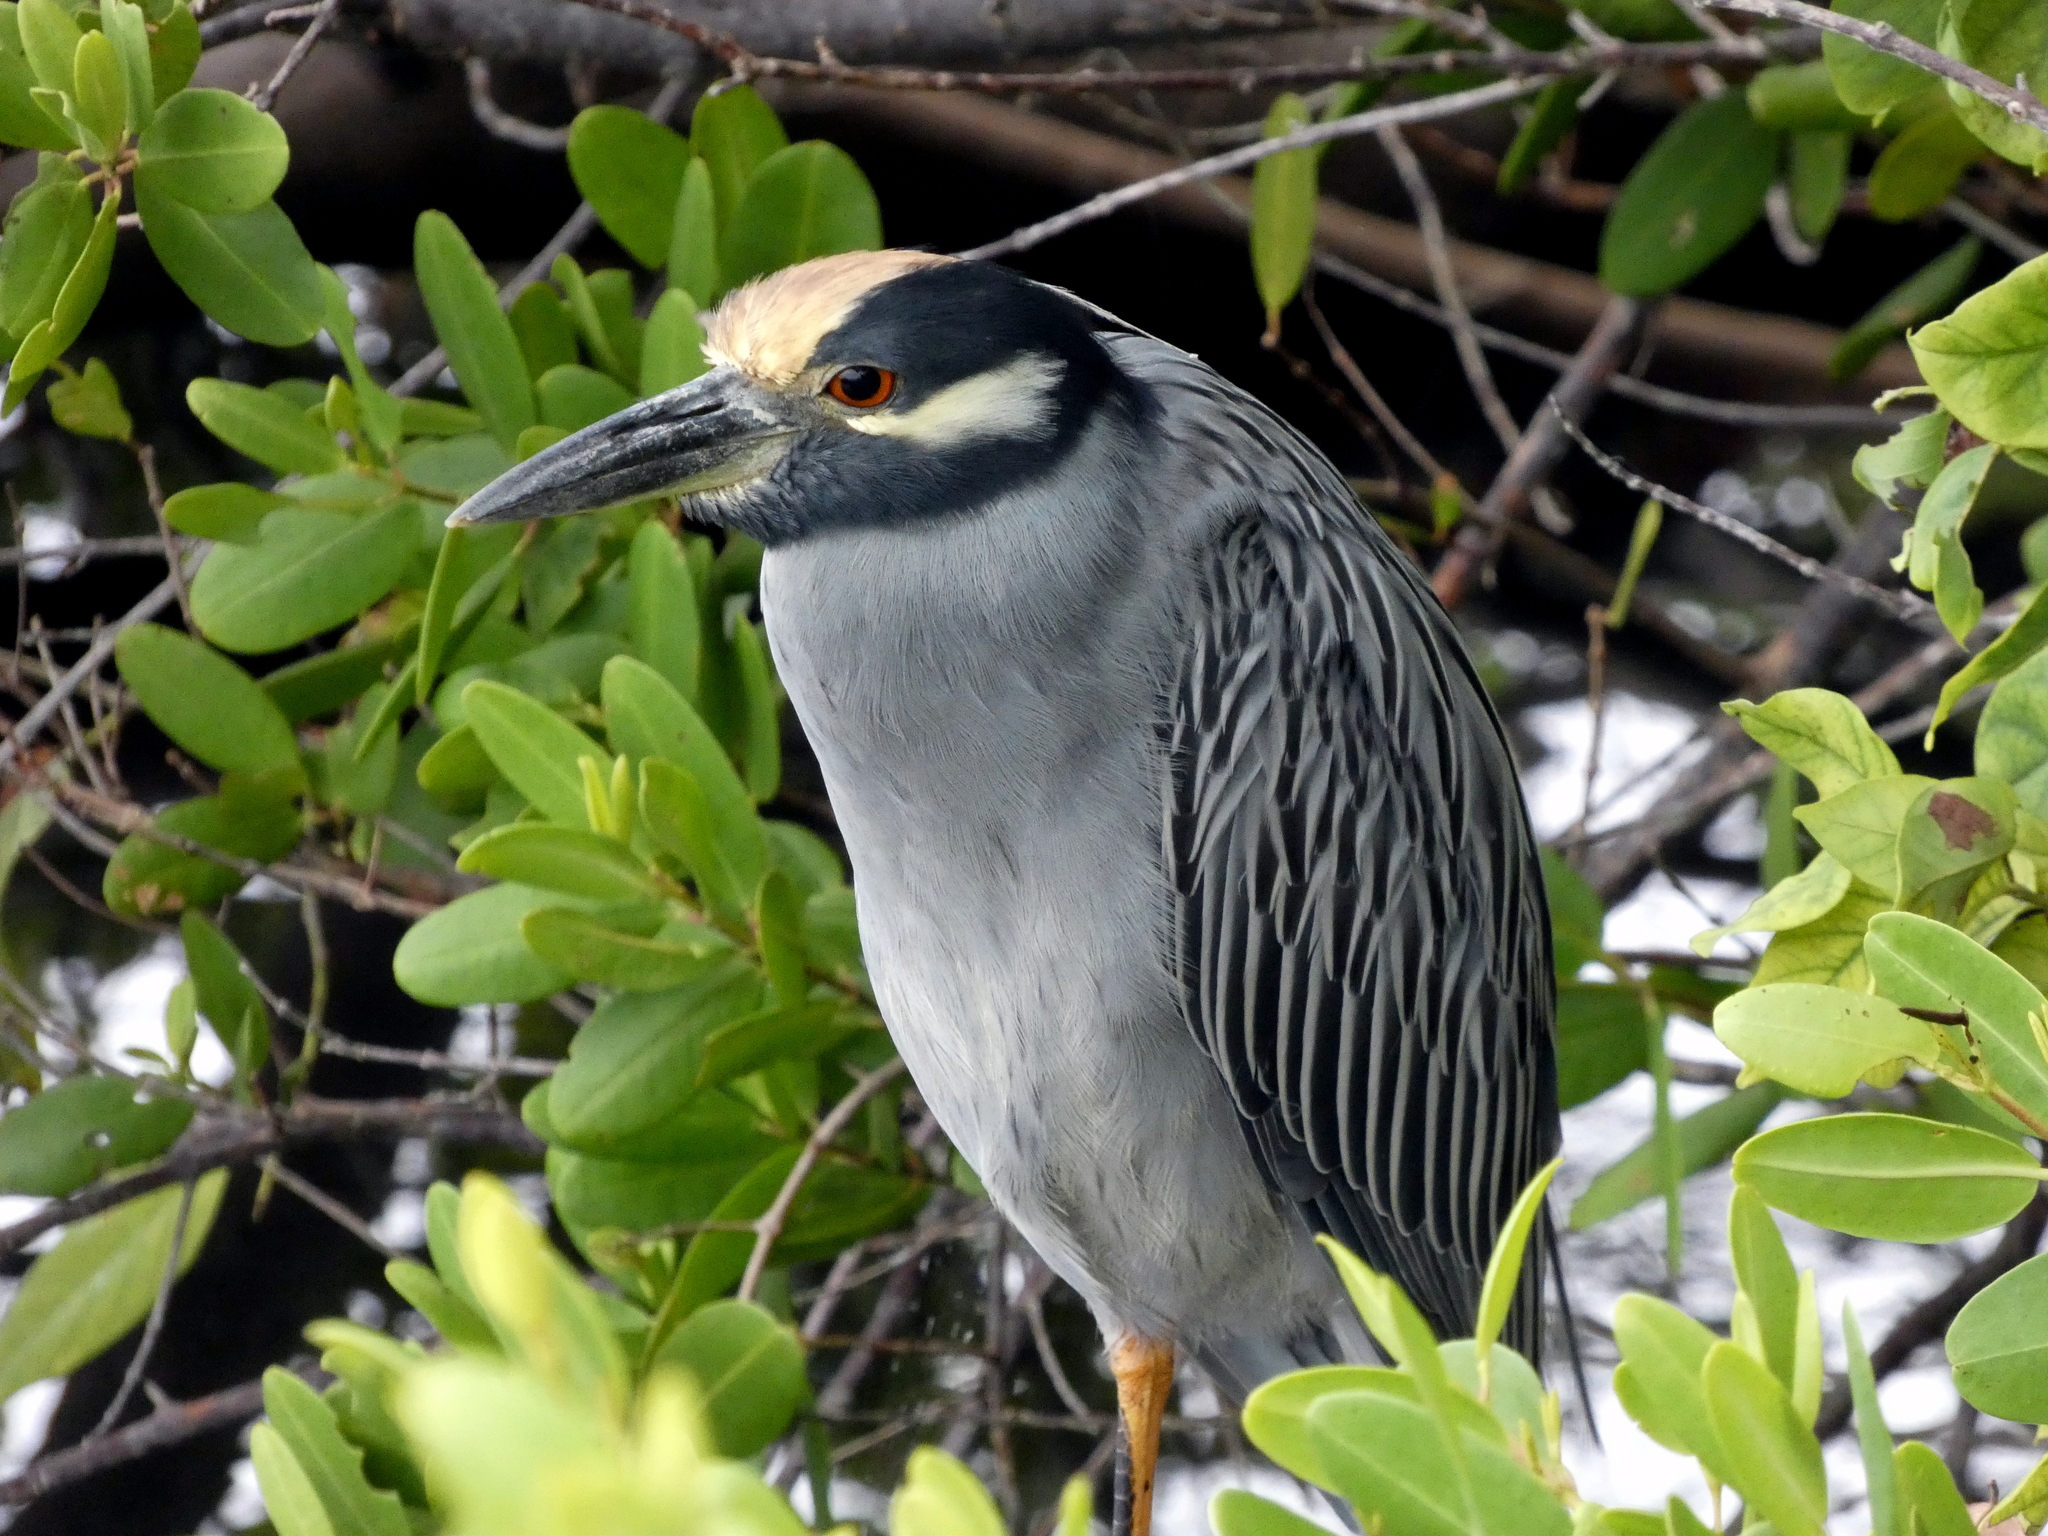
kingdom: Animalia
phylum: Chordata
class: Aves
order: Pelecaniformes
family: Ardeidae
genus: Nyctanassa
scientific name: Nyctanassa violacea
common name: Yellow-crowned night heron
